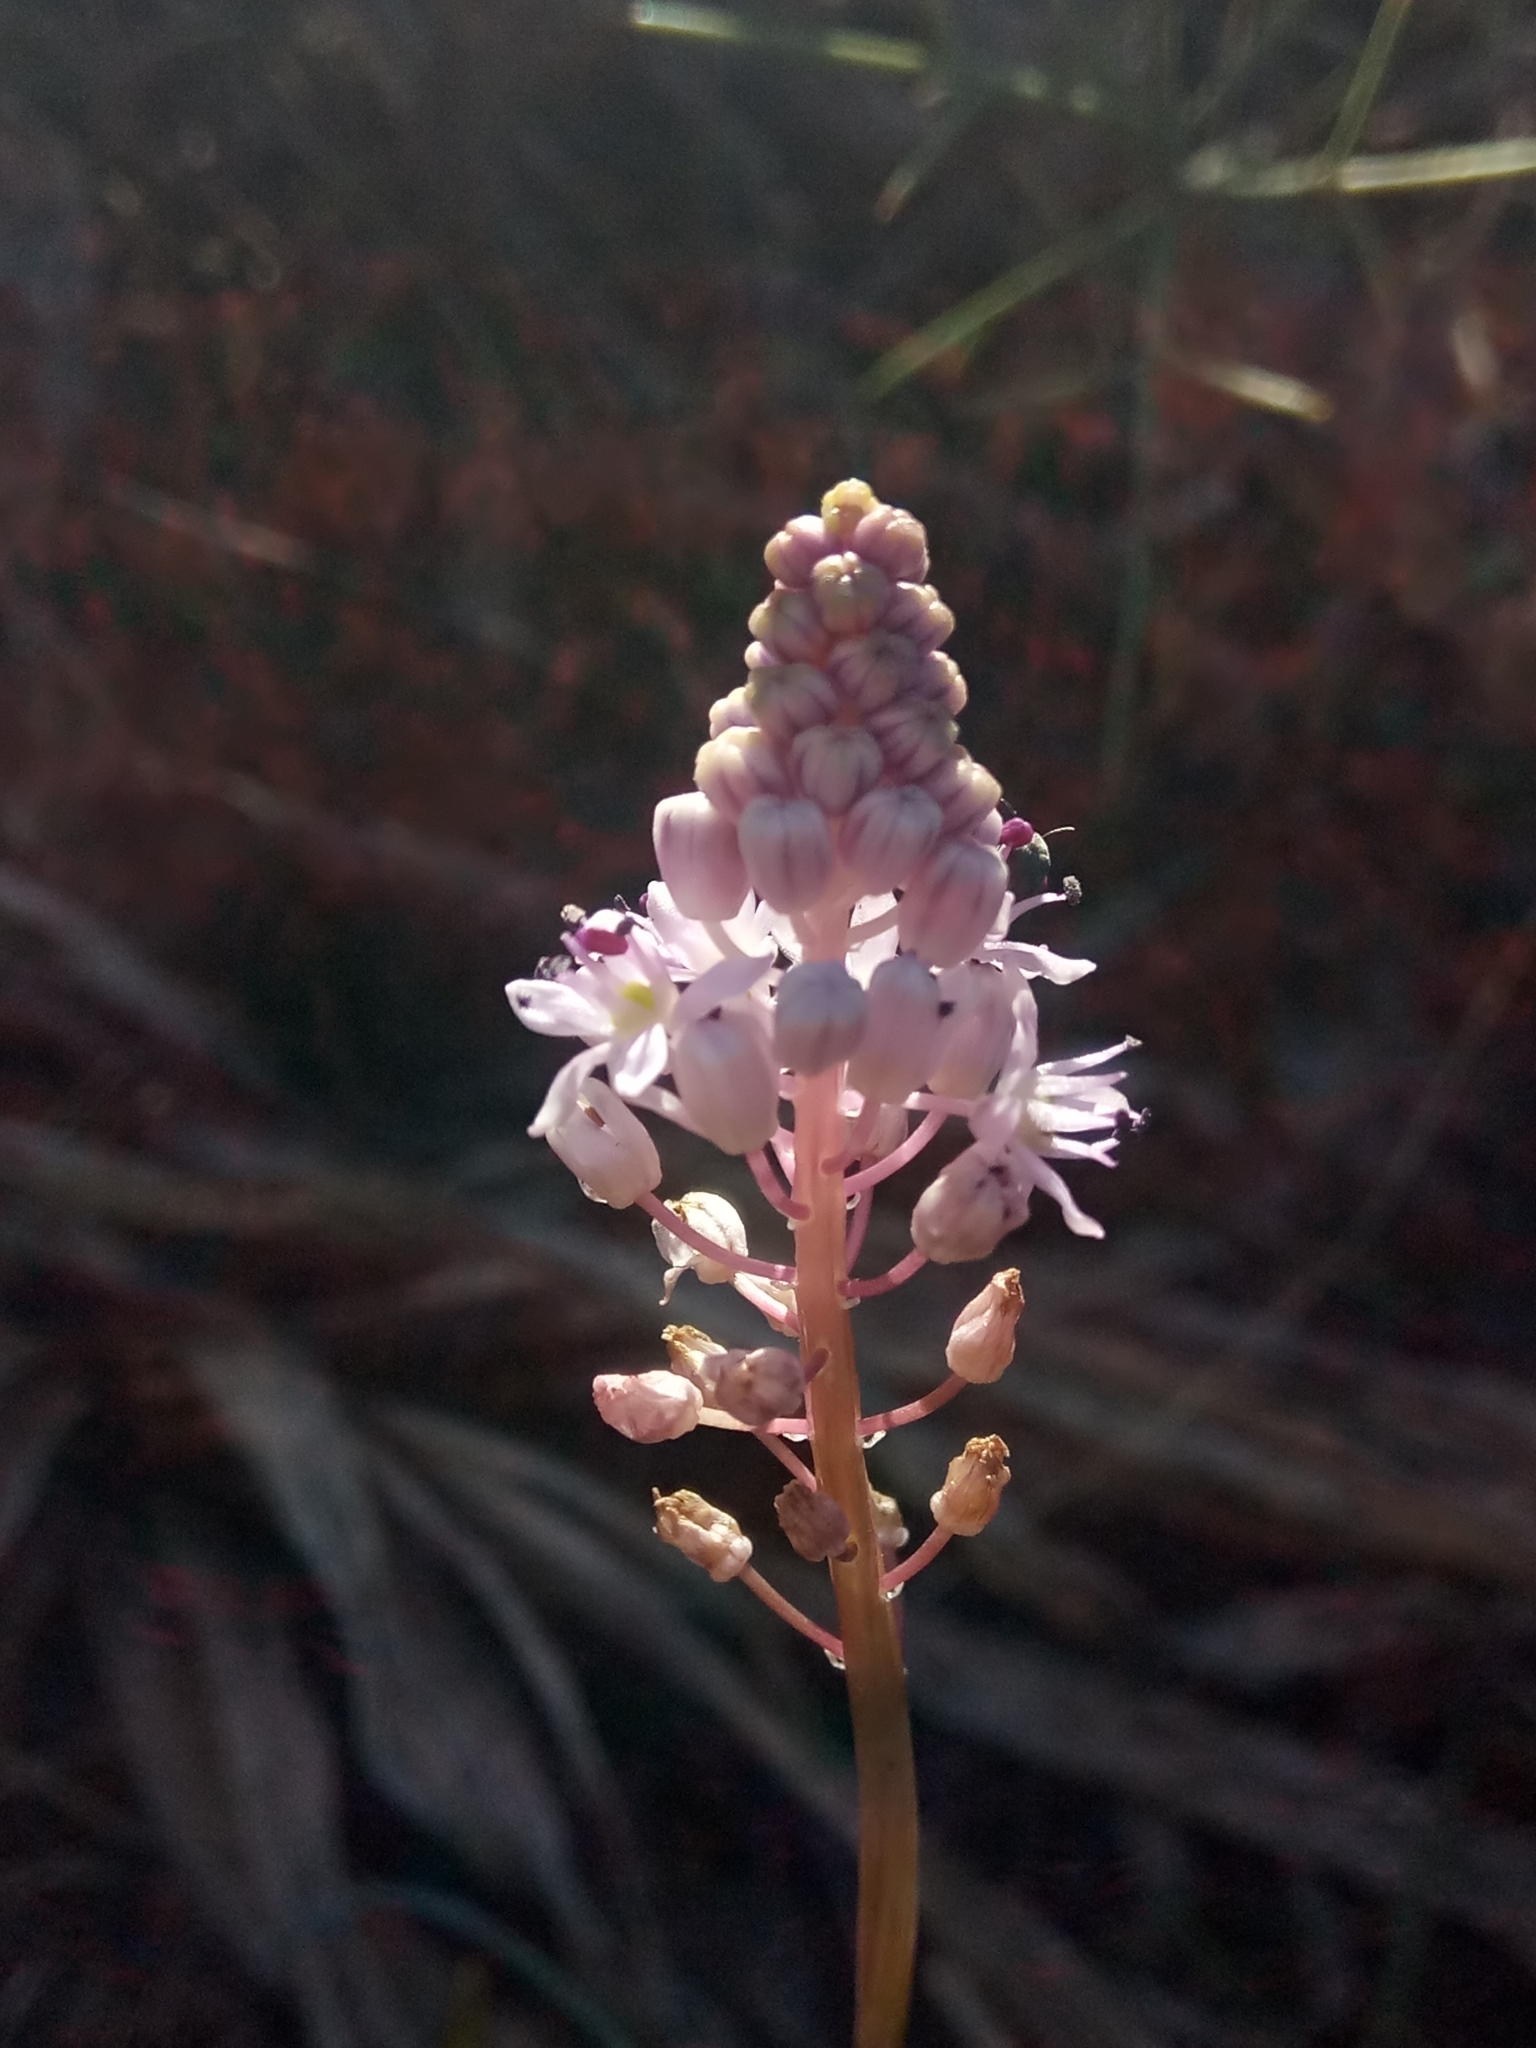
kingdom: Plantae
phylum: Tracheophyta
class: Liliopsida
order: Asparagales
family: Asparagaceae
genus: Barnardia
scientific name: Barnardia numidica
